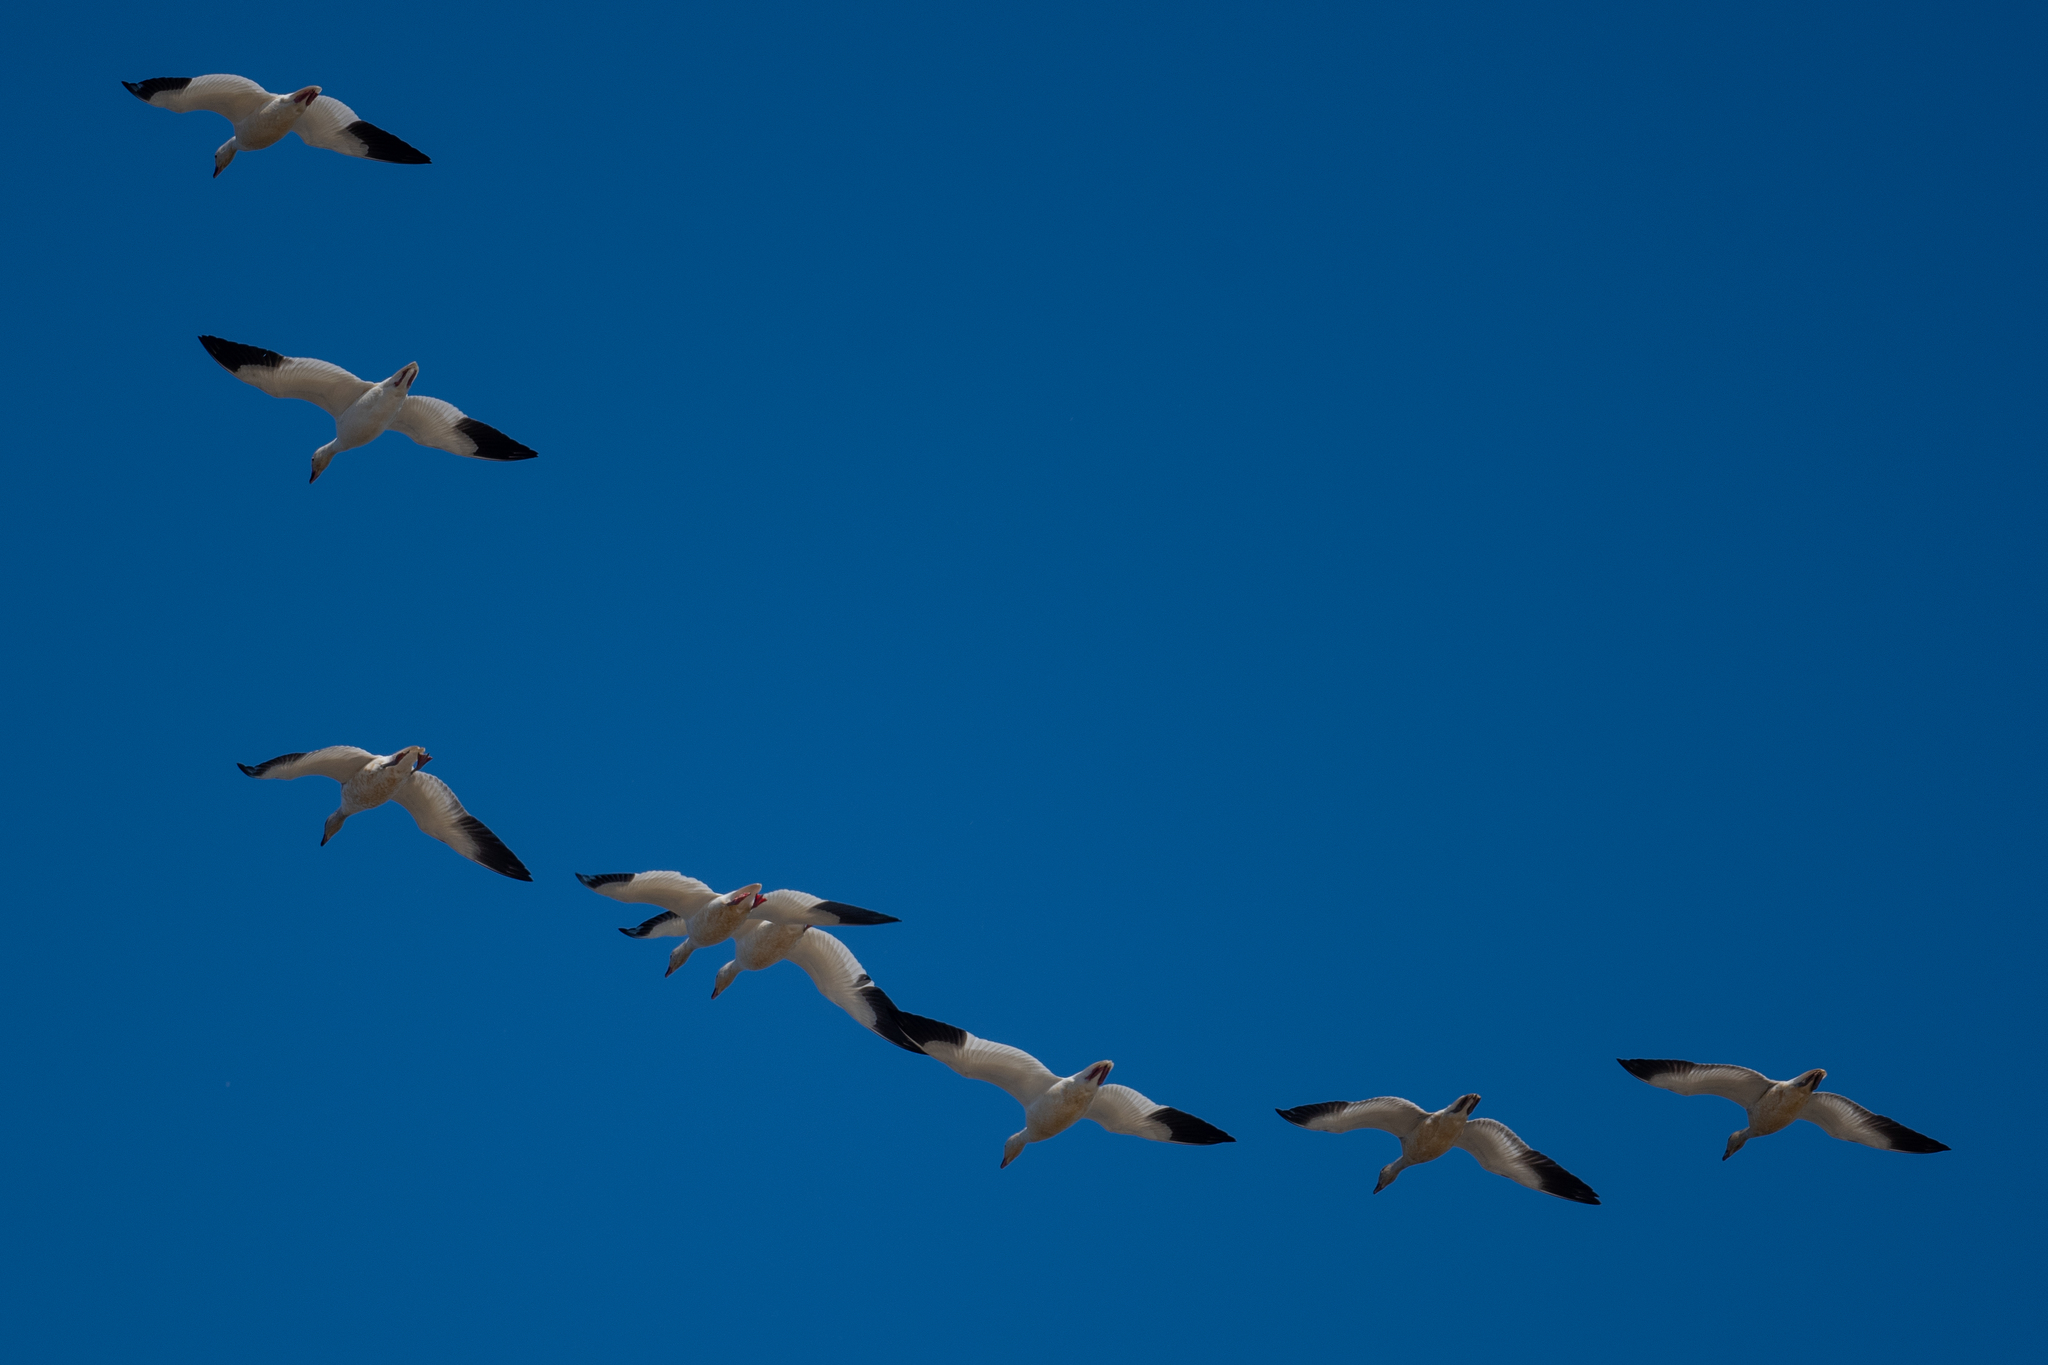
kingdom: Animalia
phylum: Chordata
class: Aves
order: Anseriformes
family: Anatidae
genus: Anser
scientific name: Anser caerulescens
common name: Snow goose
